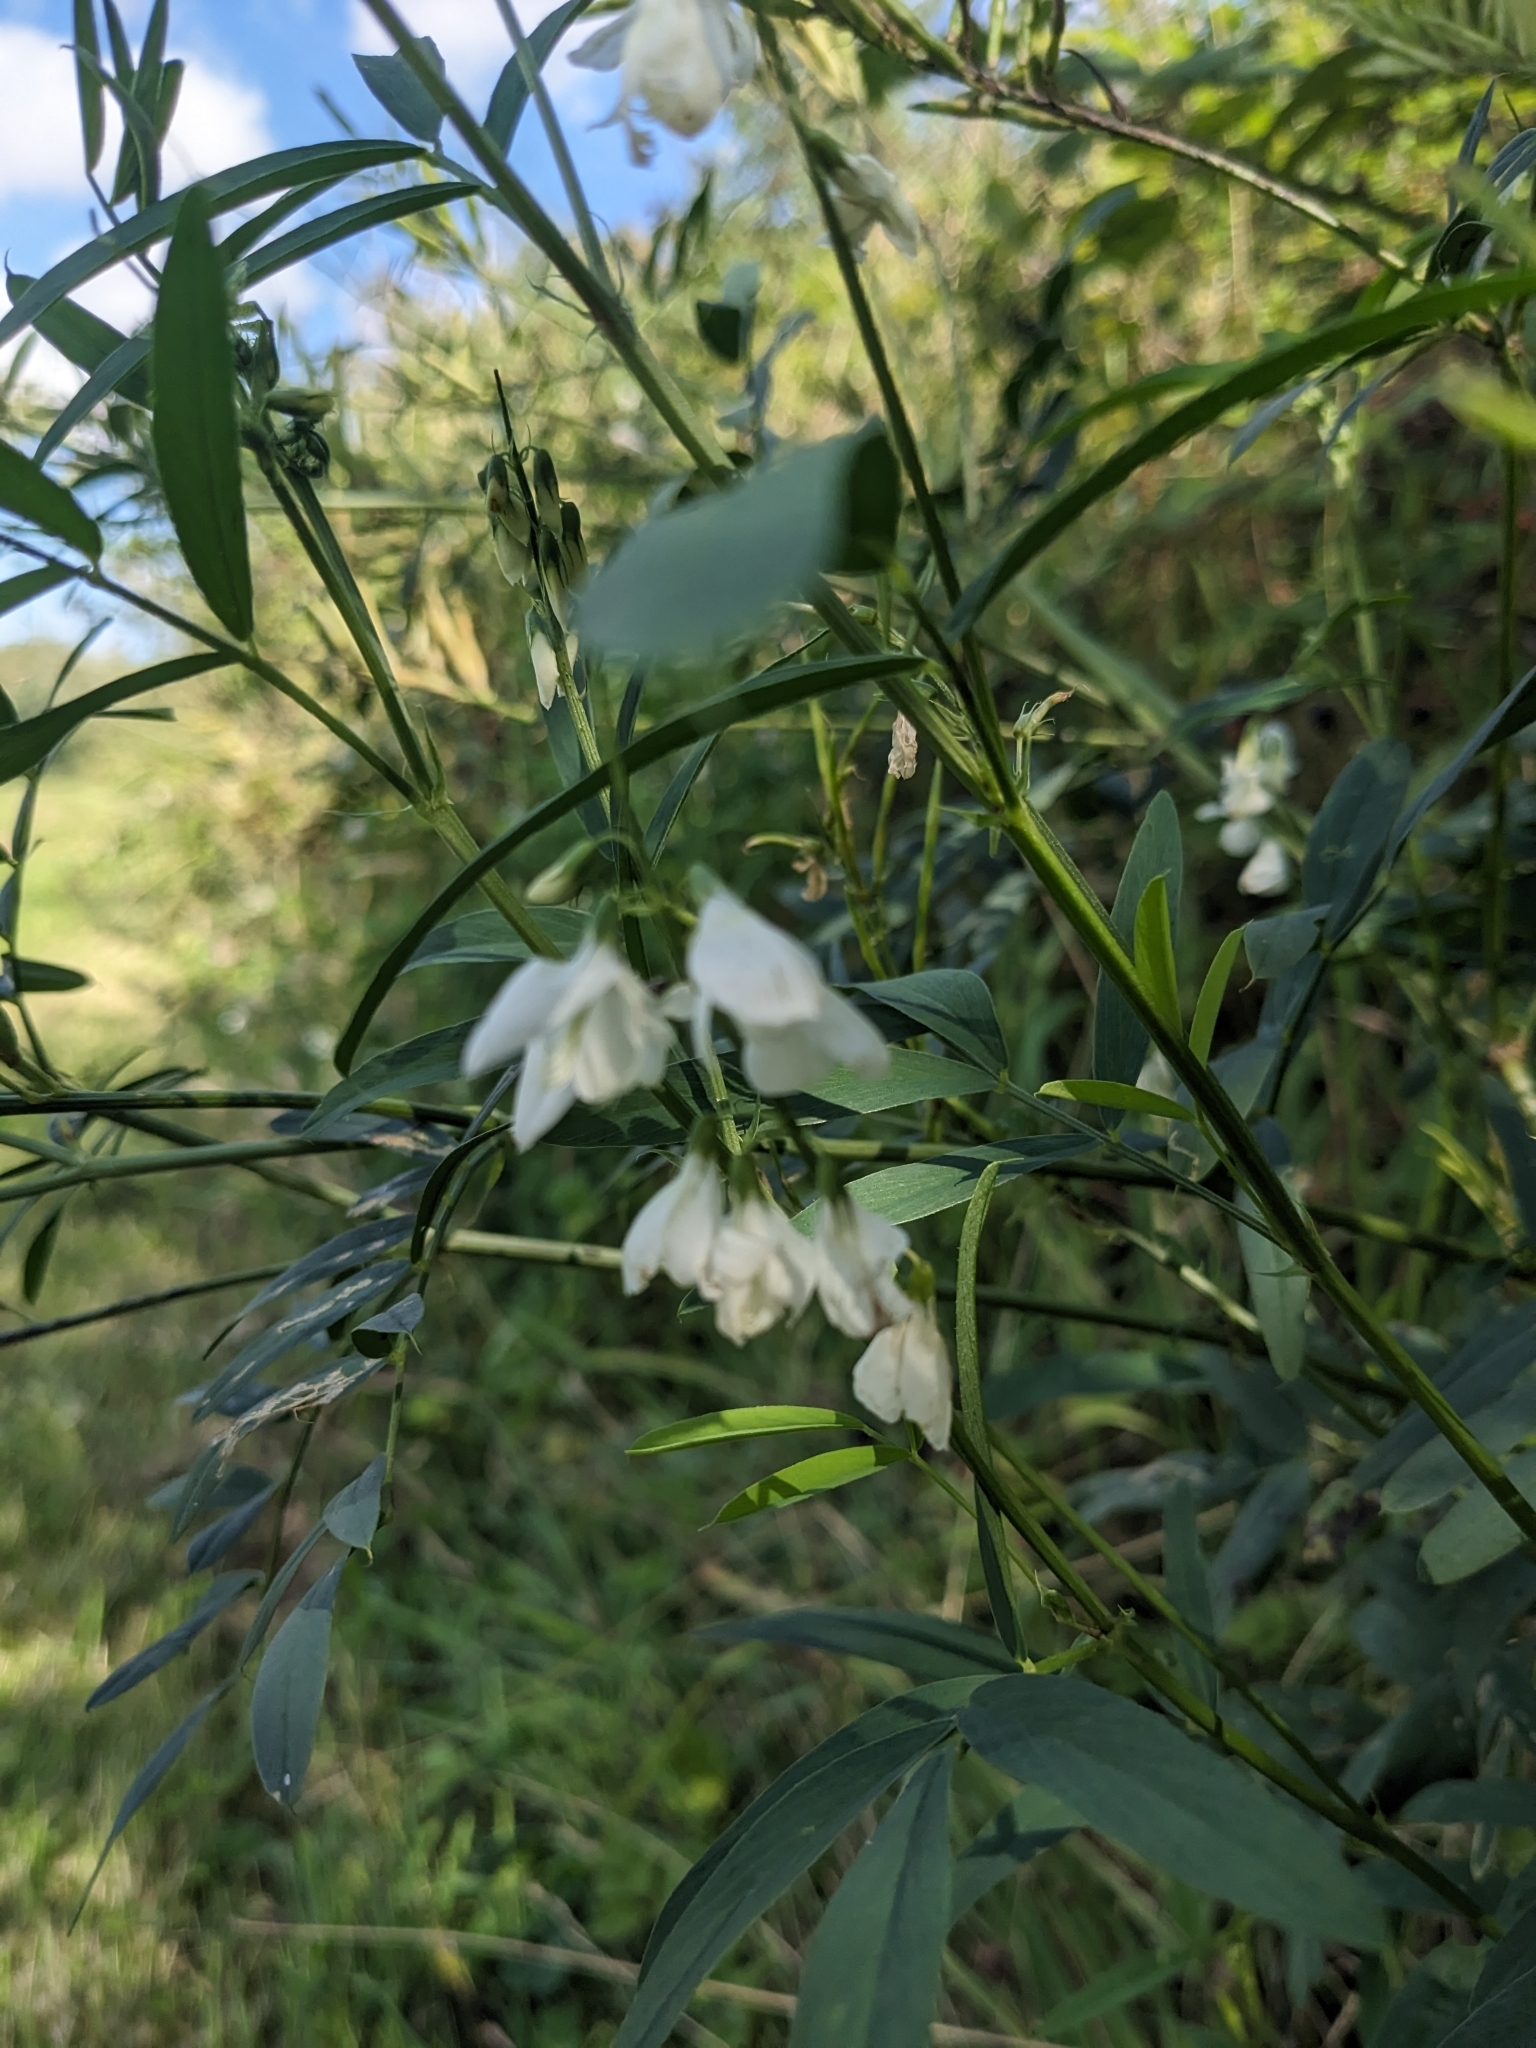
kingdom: Plantae
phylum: Tracheophyta
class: Magnoliopsida
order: Fabales
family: Fabaceae
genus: Galega
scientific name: Galega officinalis
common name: Goat's-rue
